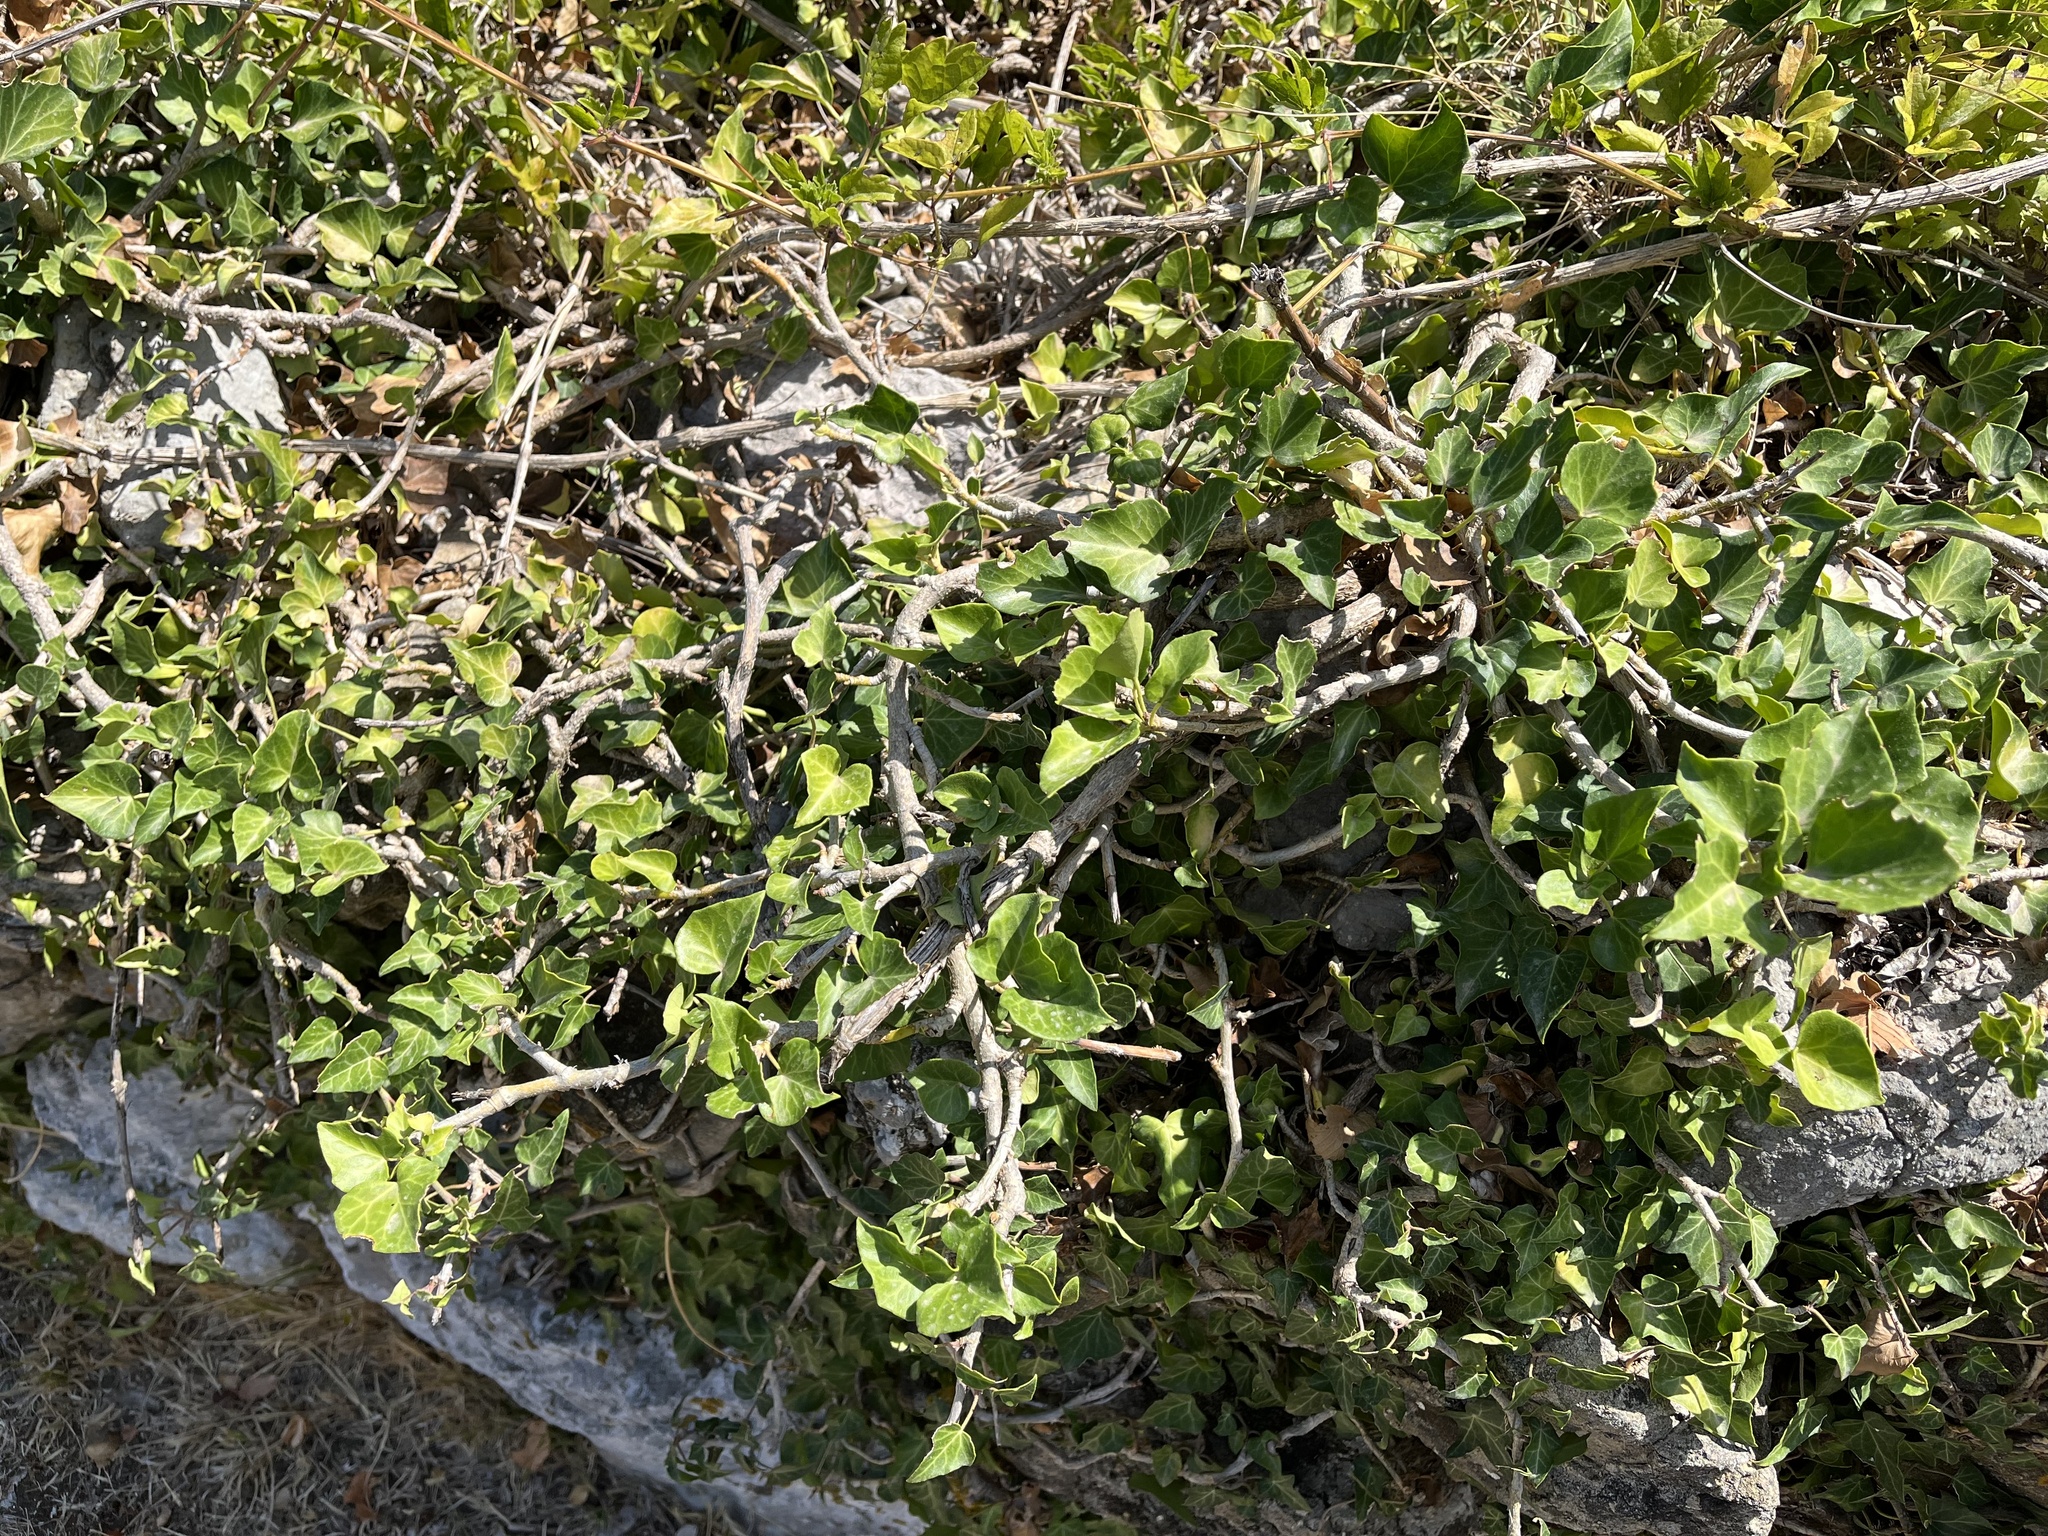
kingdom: Plantae
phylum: Tracheophyta
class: Magnoliopsida
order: Apiales
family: Araliaceae
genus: Hedera
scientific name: Hedera helix
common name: Ivy
